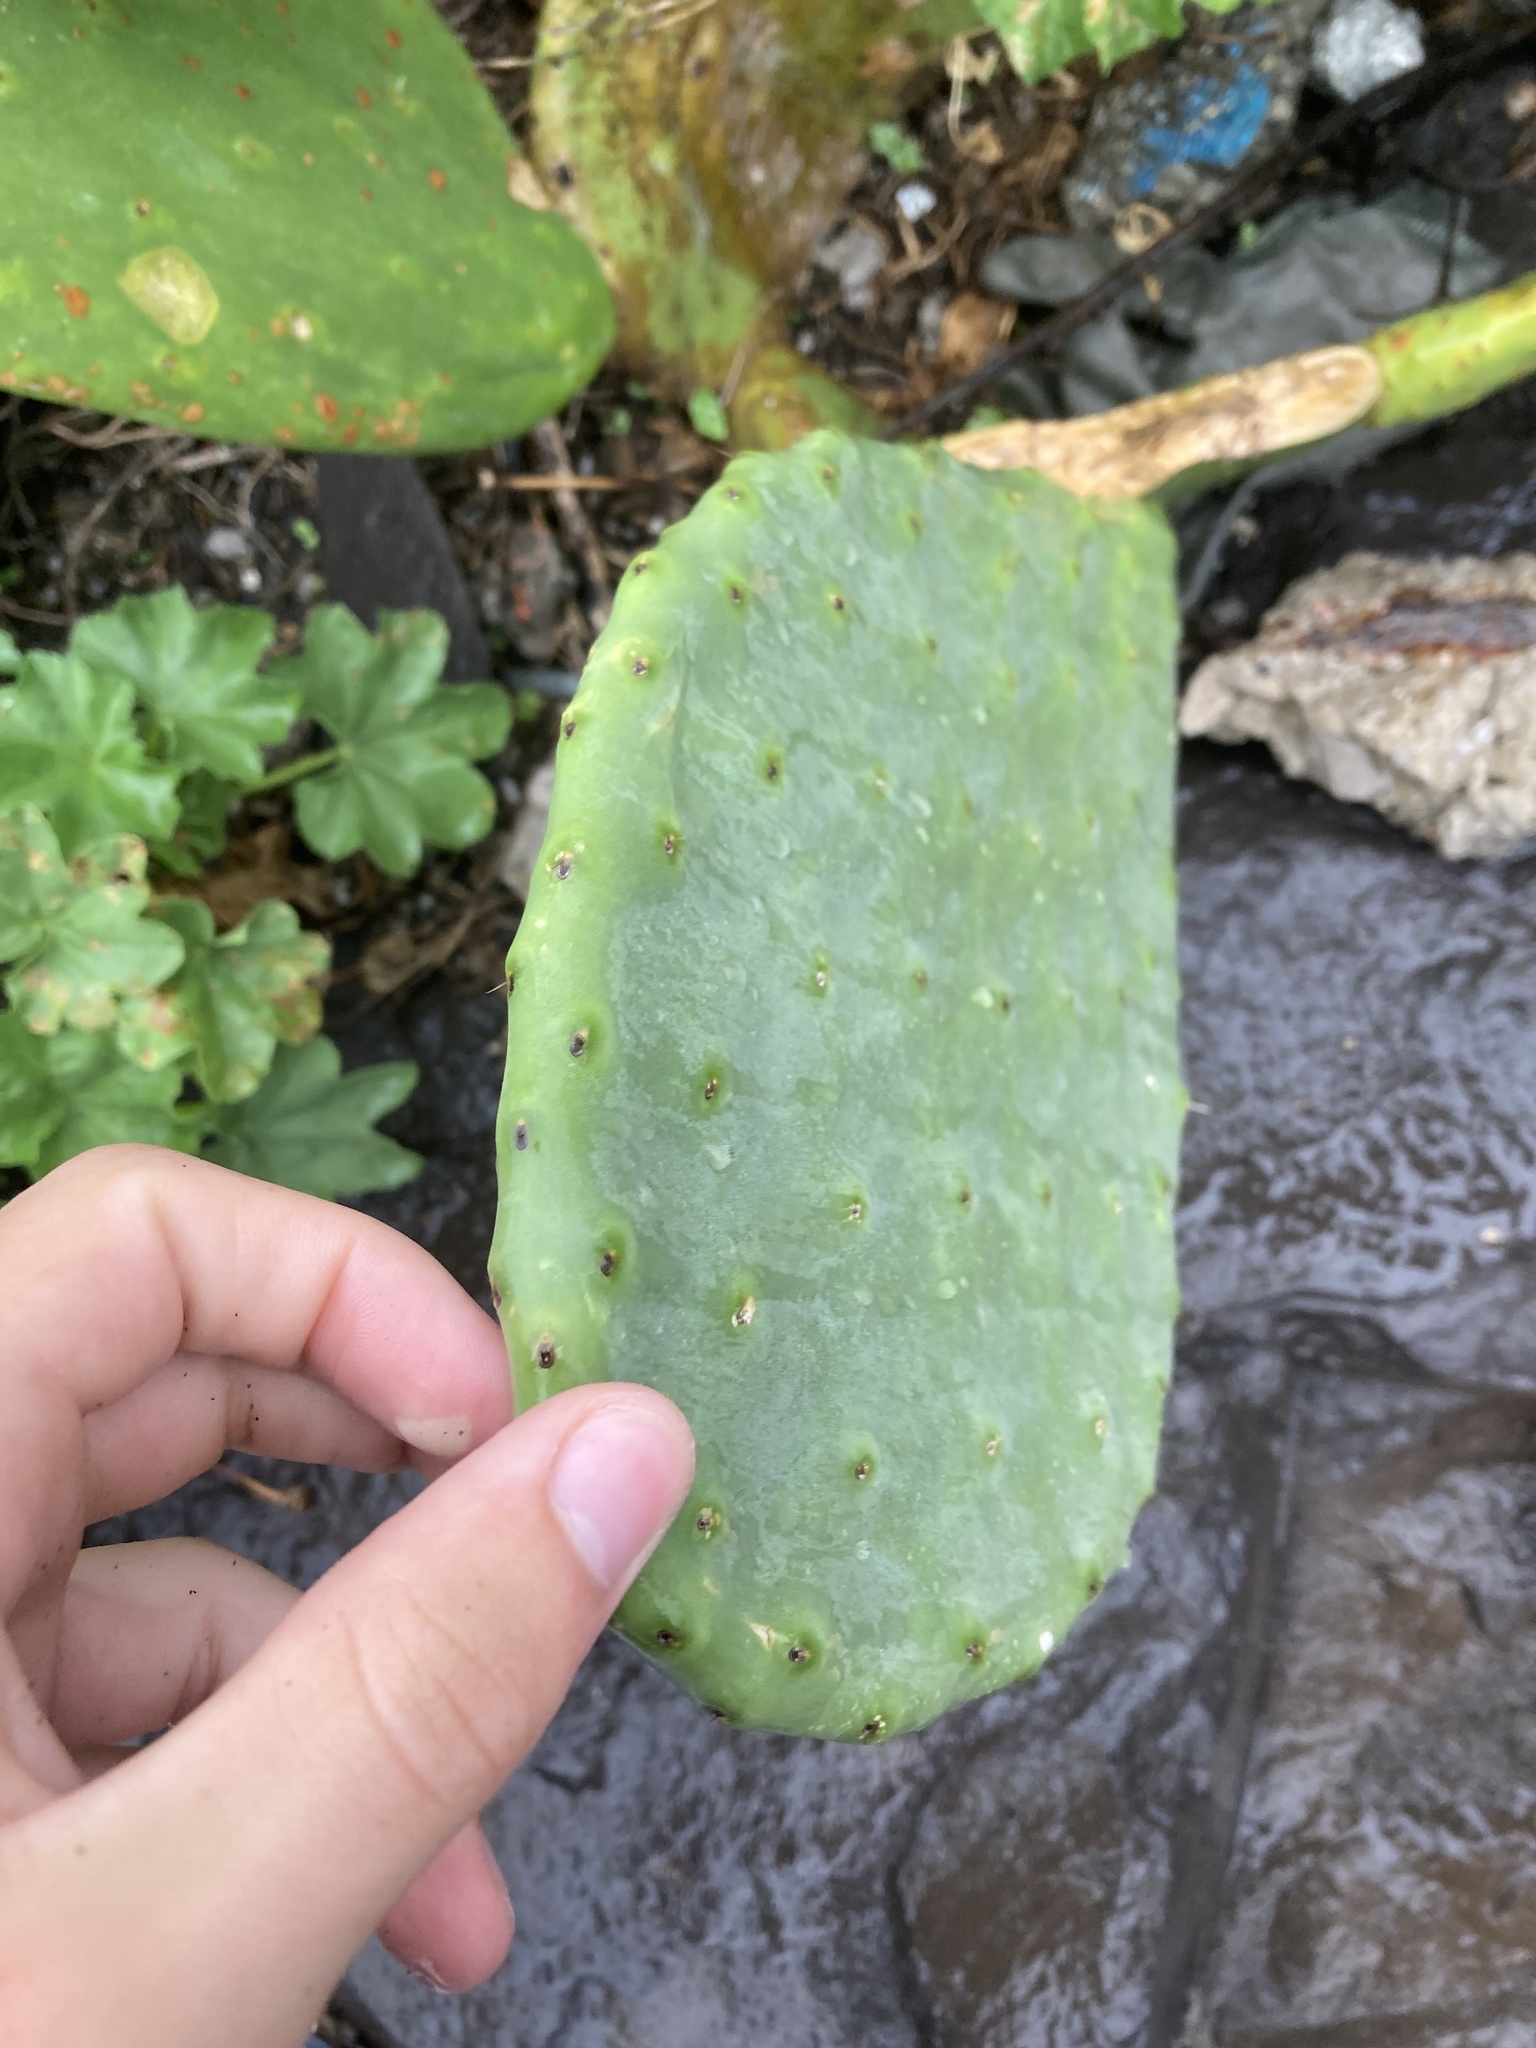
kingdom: Plantae
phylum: Tracheophyta
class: Magnoliopsida
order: Caryophyllales
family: Cactaceae
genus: Opuntia
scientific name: Opuntia ficus-indica
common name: Barbary fig
